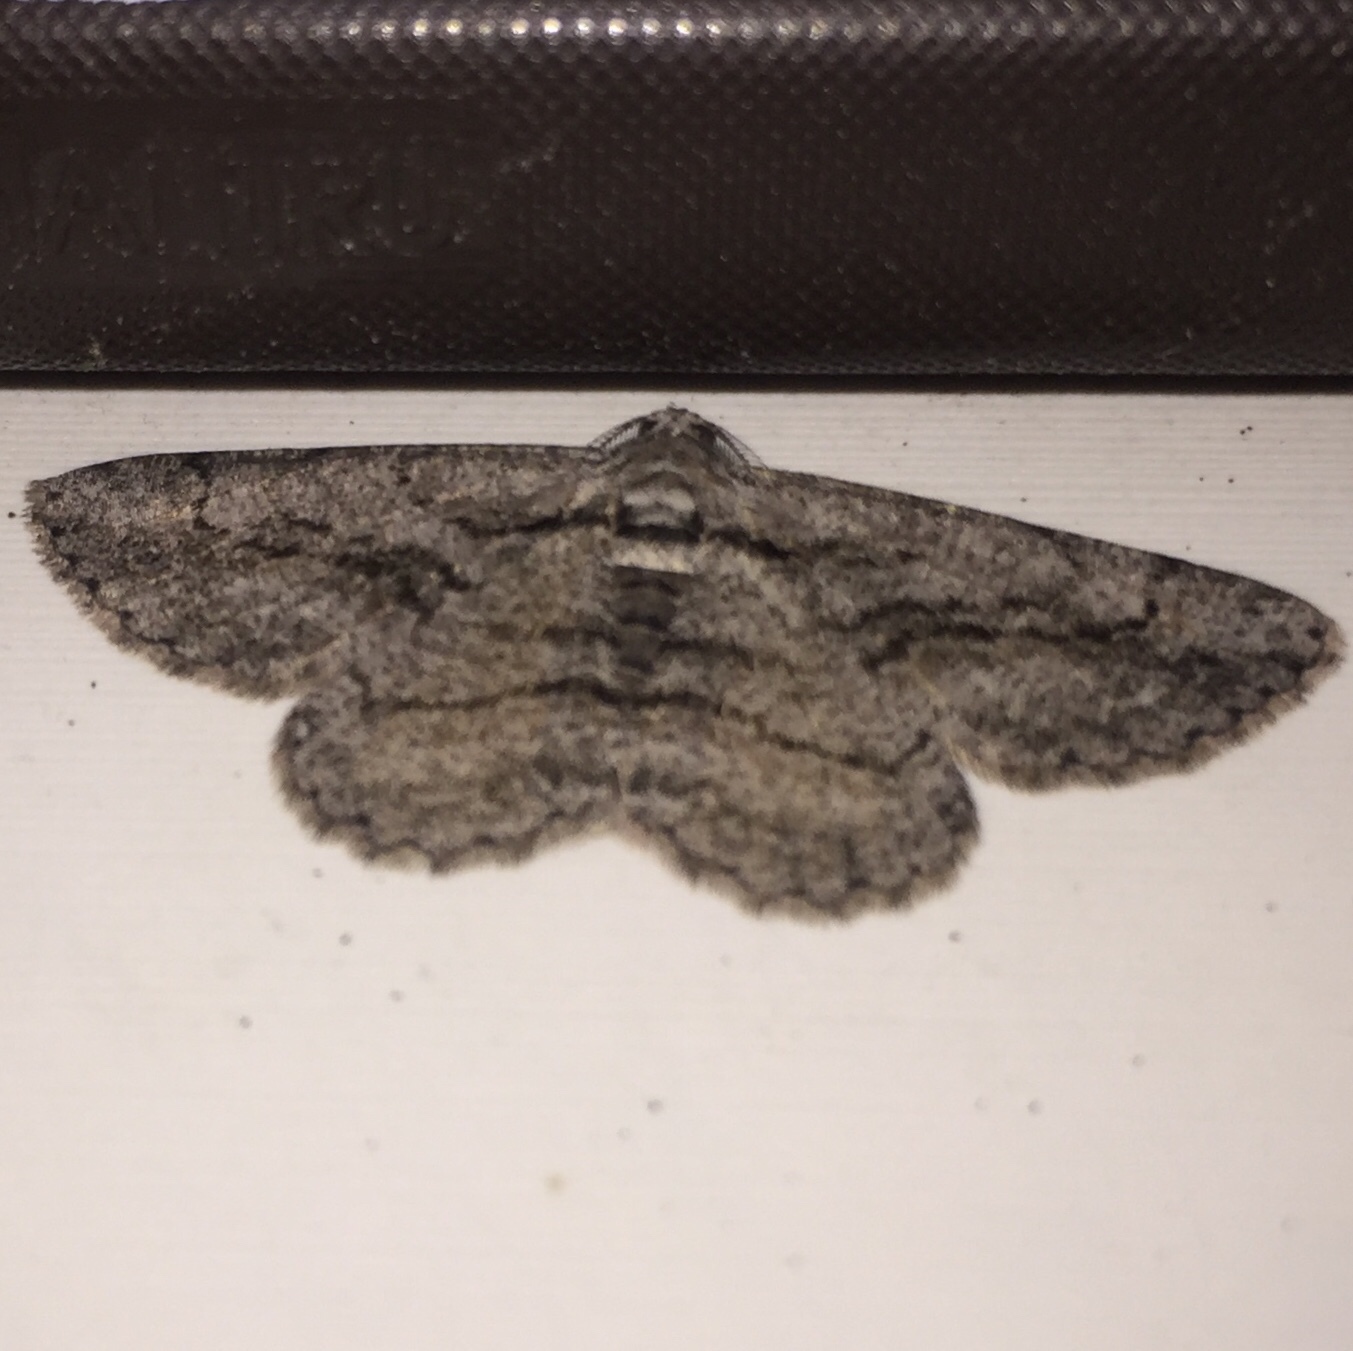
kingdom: Animalia
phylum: Arthropoda
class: Insecta
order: Lepidoptera
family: Geometridae
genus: Anavitrinella
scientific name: Anavitrinella pampinaria
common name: Common gray
